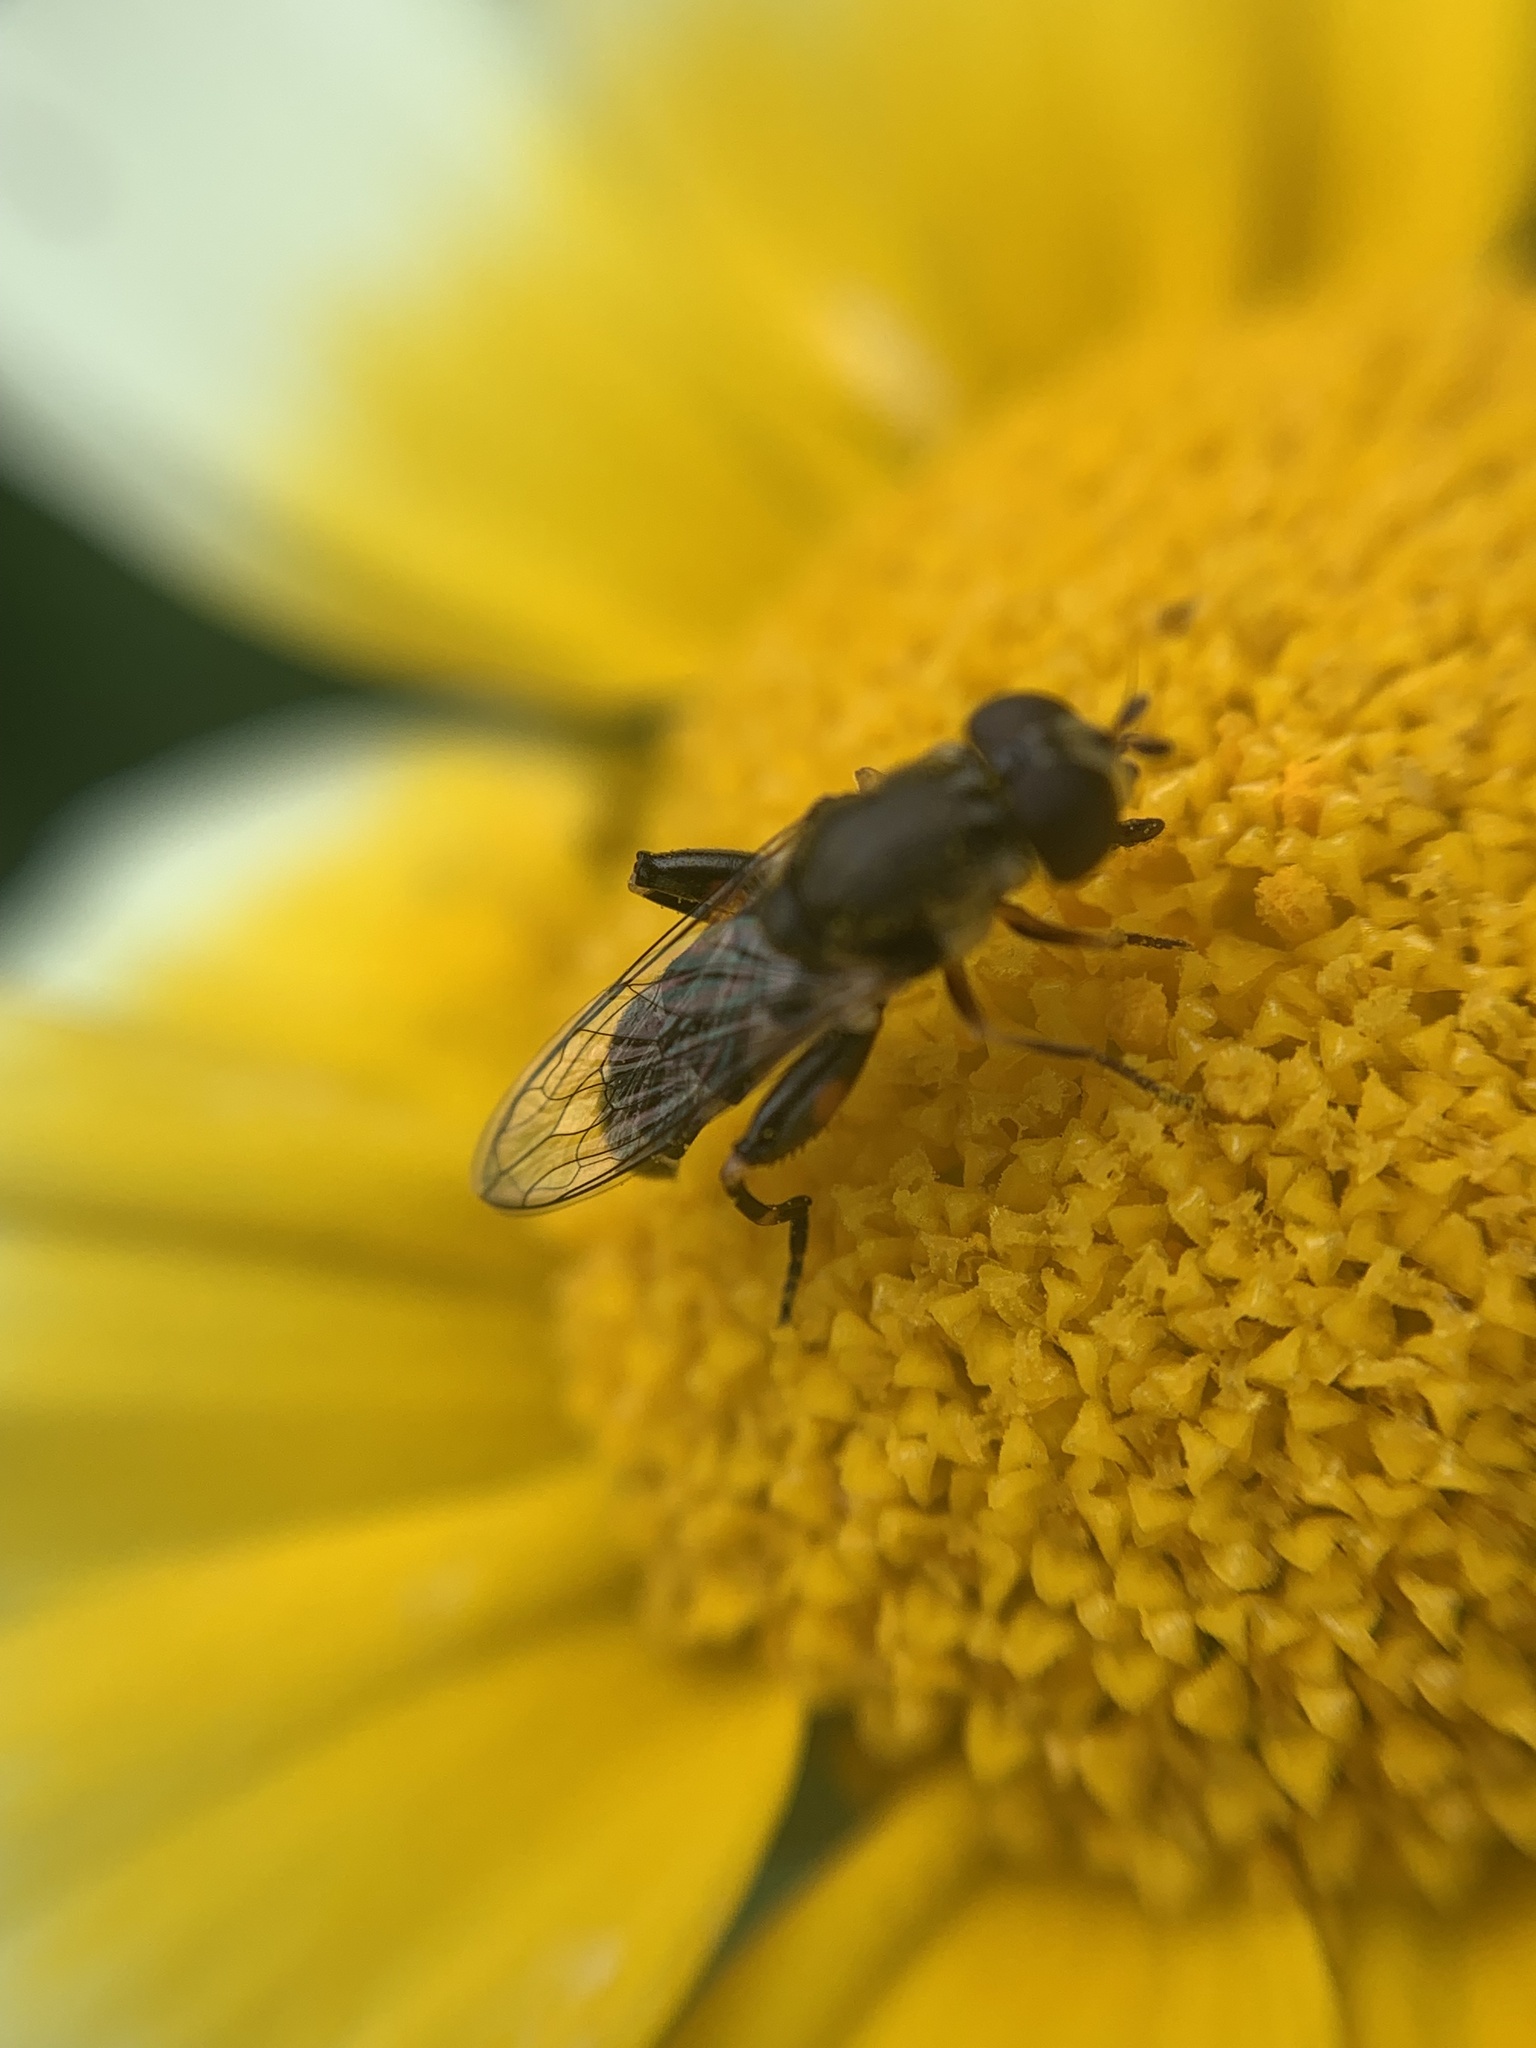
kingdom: Animalia
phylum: Arthropoda
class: Insecta
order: Diptera
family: Syrphidae
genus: Syritta
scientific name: Syritta pipiens
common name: Hover fly
